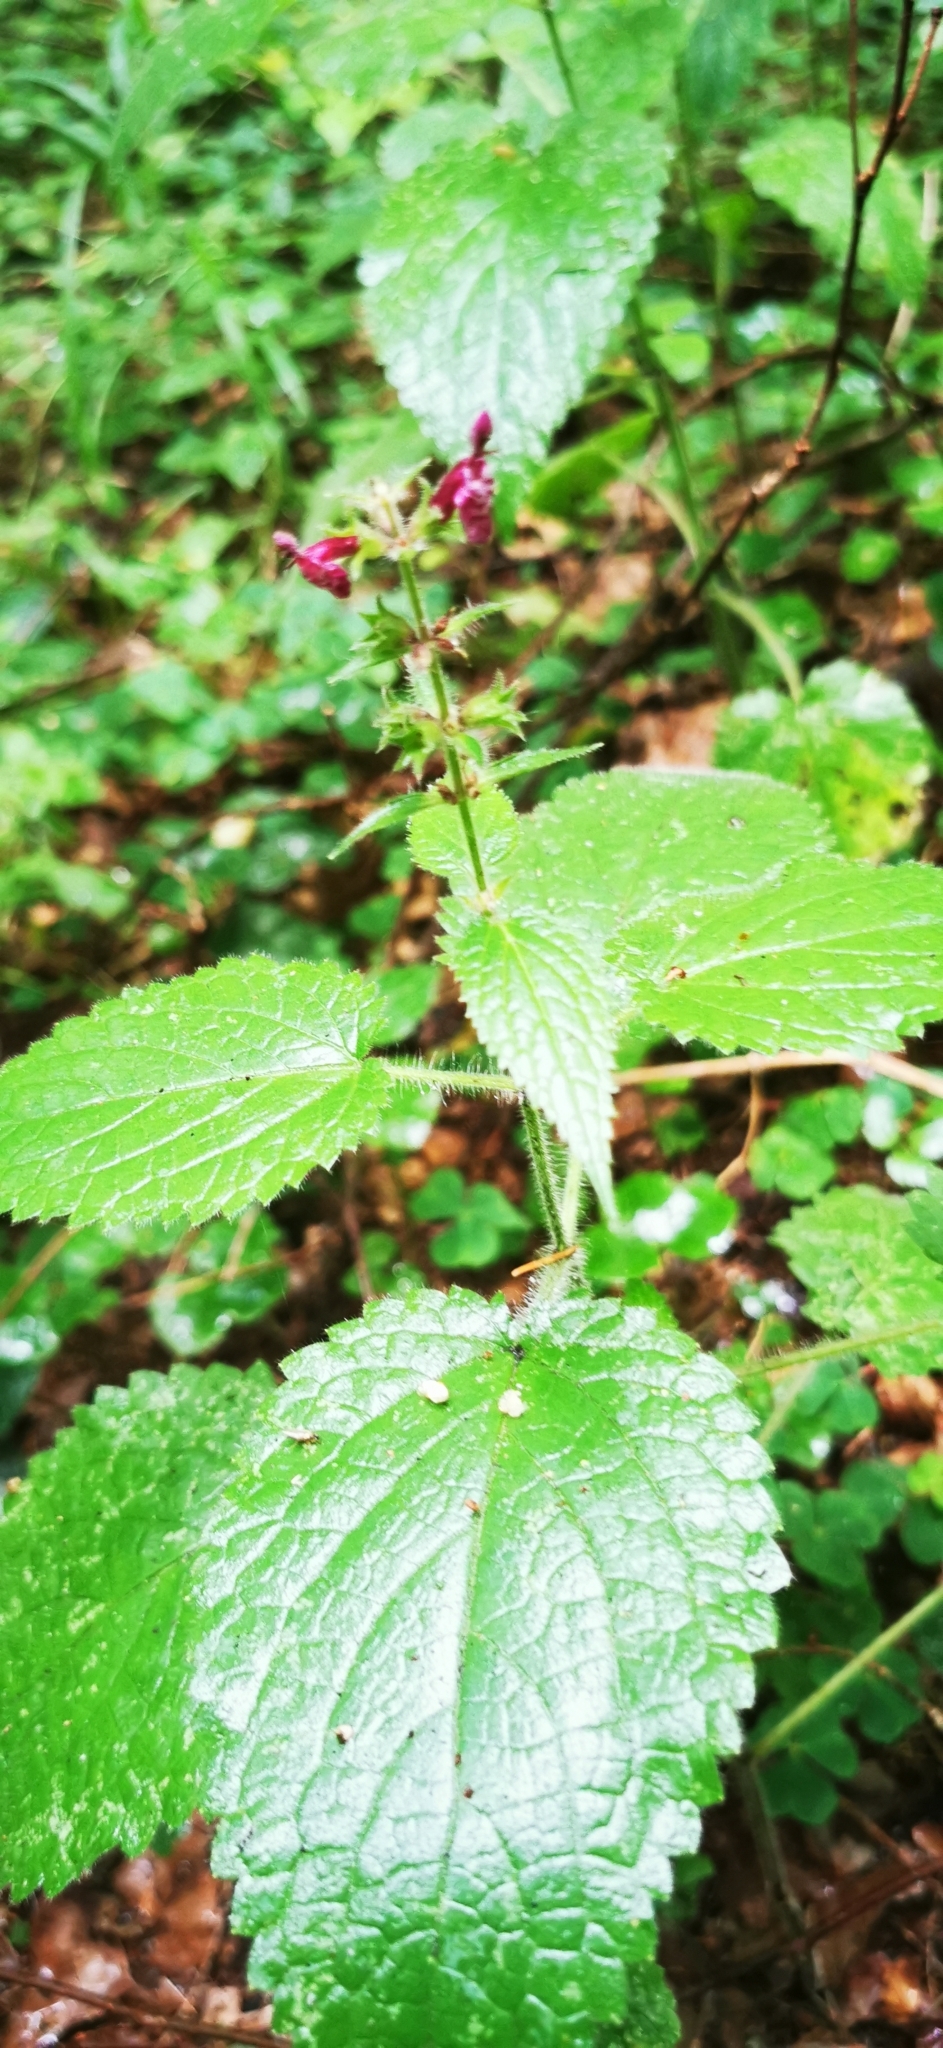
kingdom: Plantae
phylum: Tracheophyta
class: Magnoliopsida
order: Lamiales
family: Lamiaceae
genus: Stachys
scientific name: Stachys sylvatica
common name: Hedge woundwort
